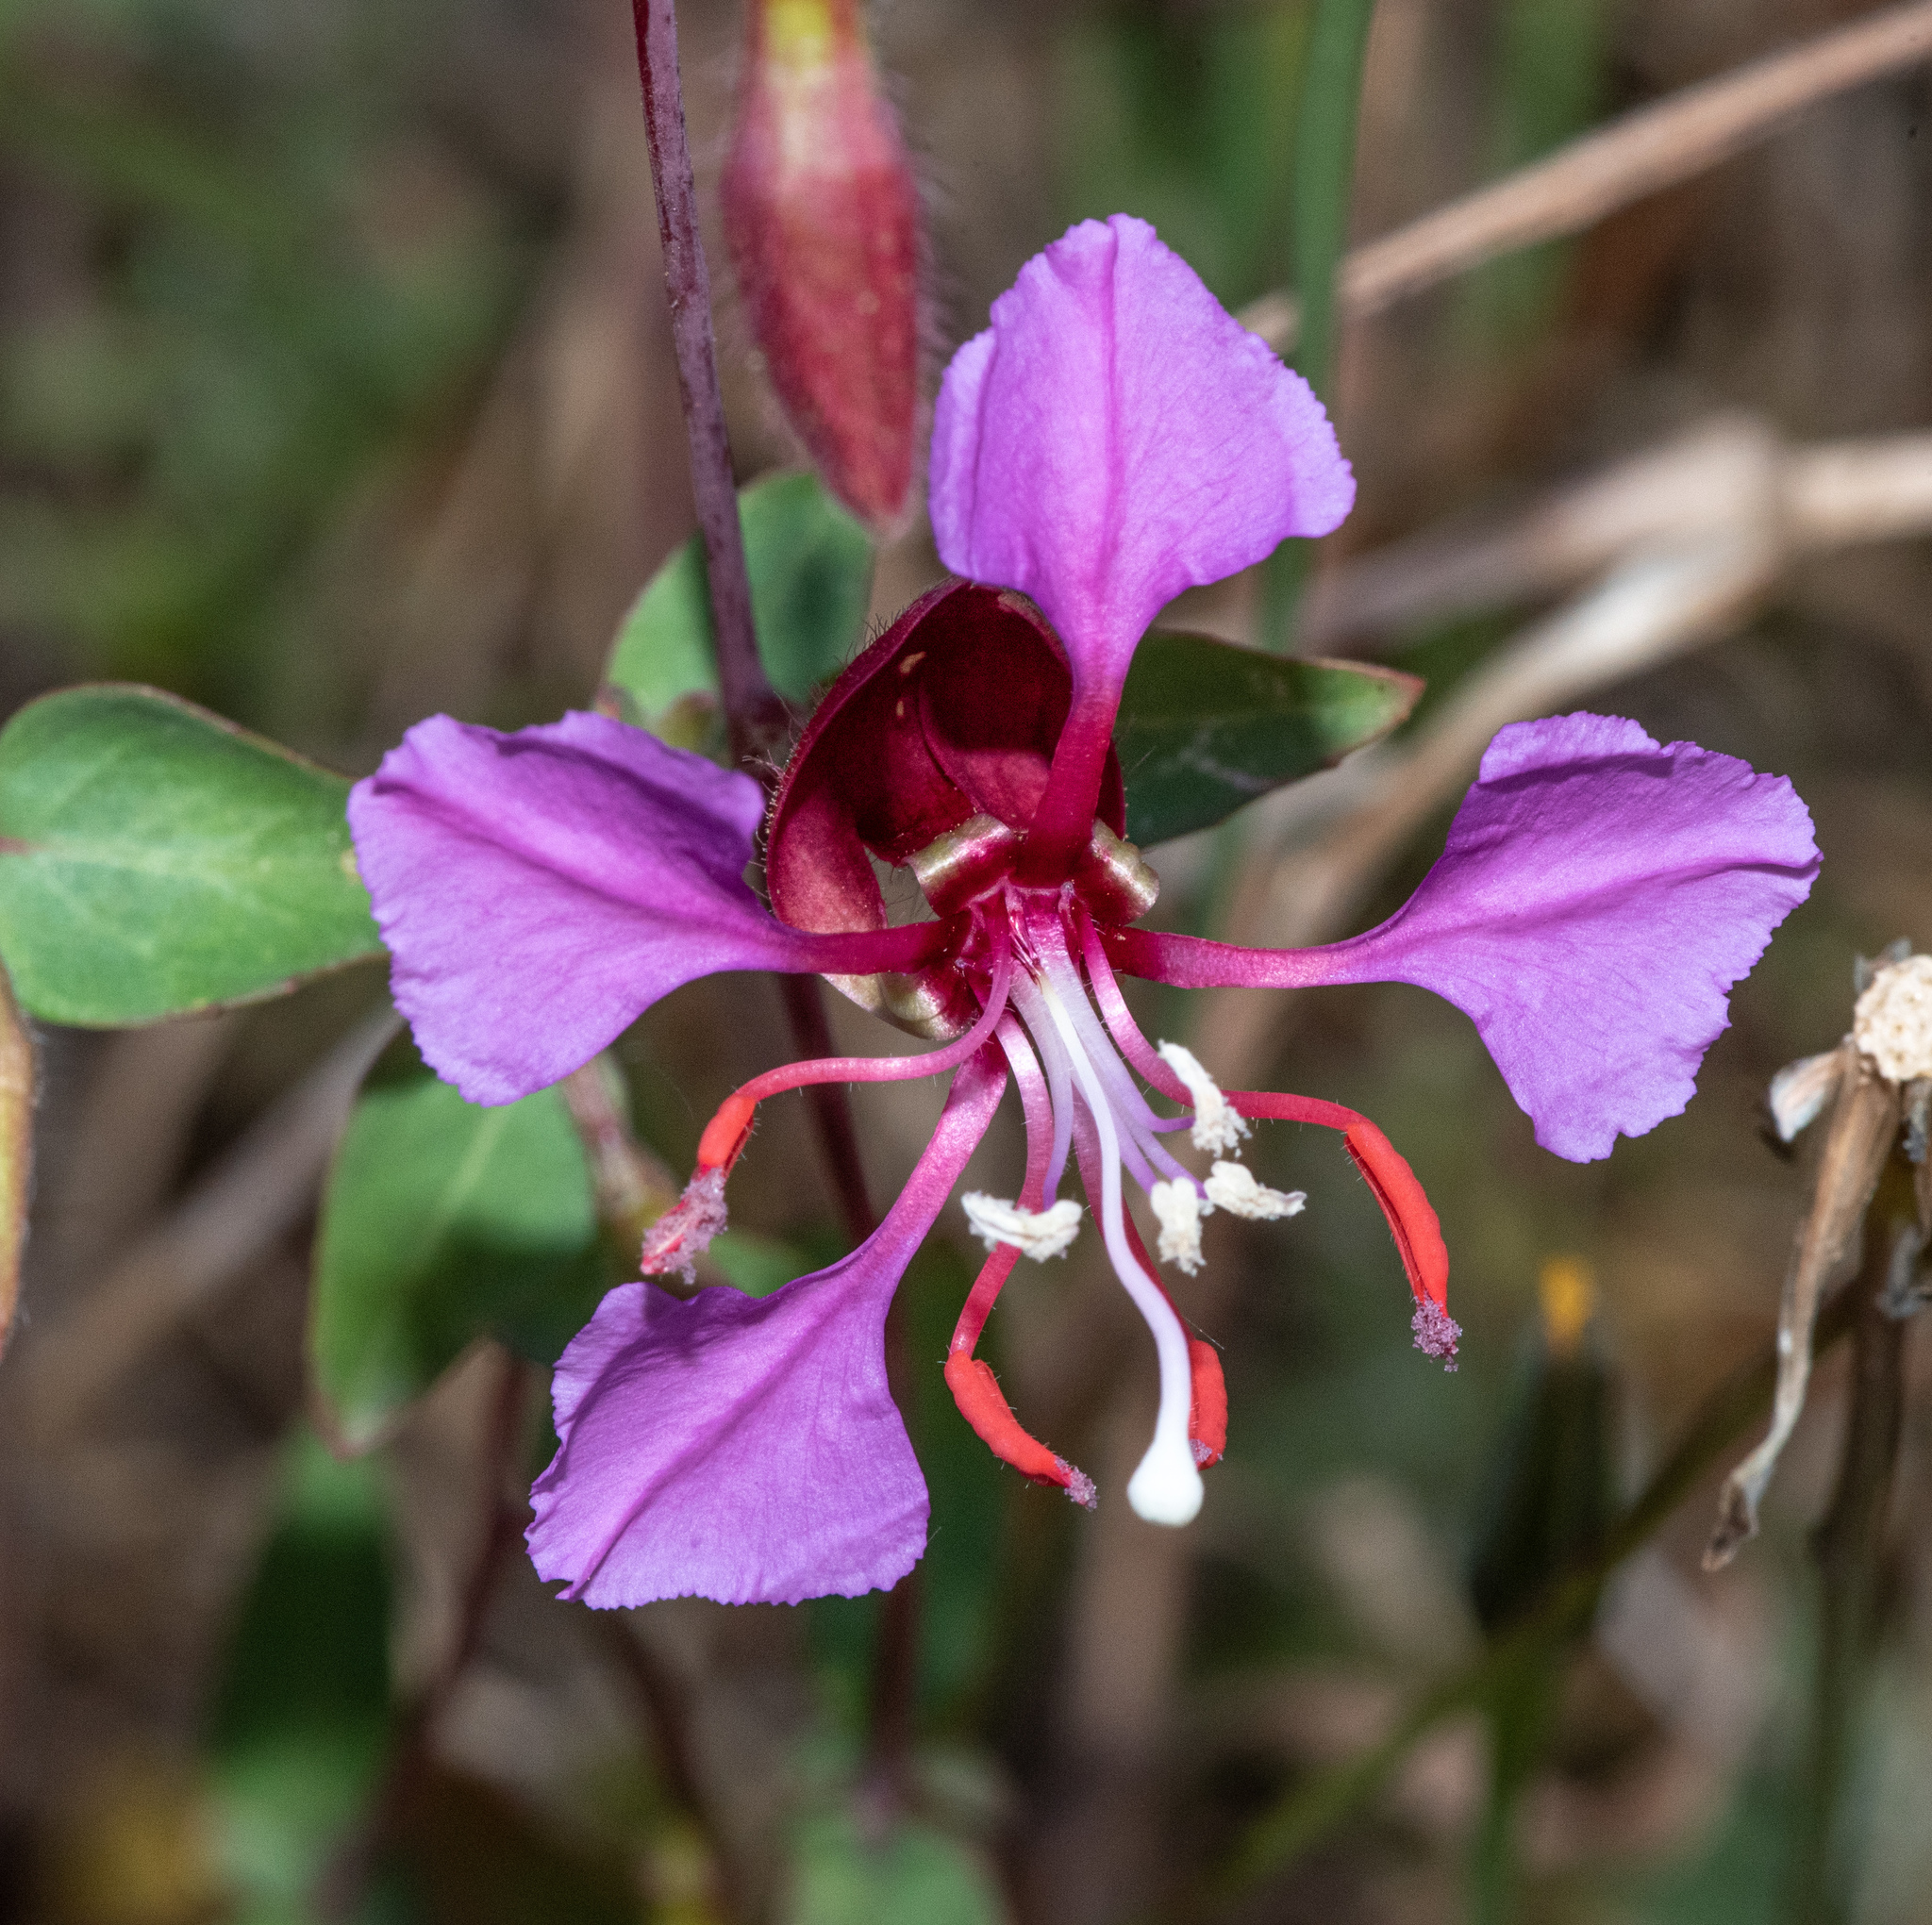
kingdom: Plantae
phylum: Tracheophyta
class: Magnoliopsida
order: Myrtales
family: Onagraceae
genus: Clarkia
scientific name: Clarkia unguiculata
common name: Clarkia
